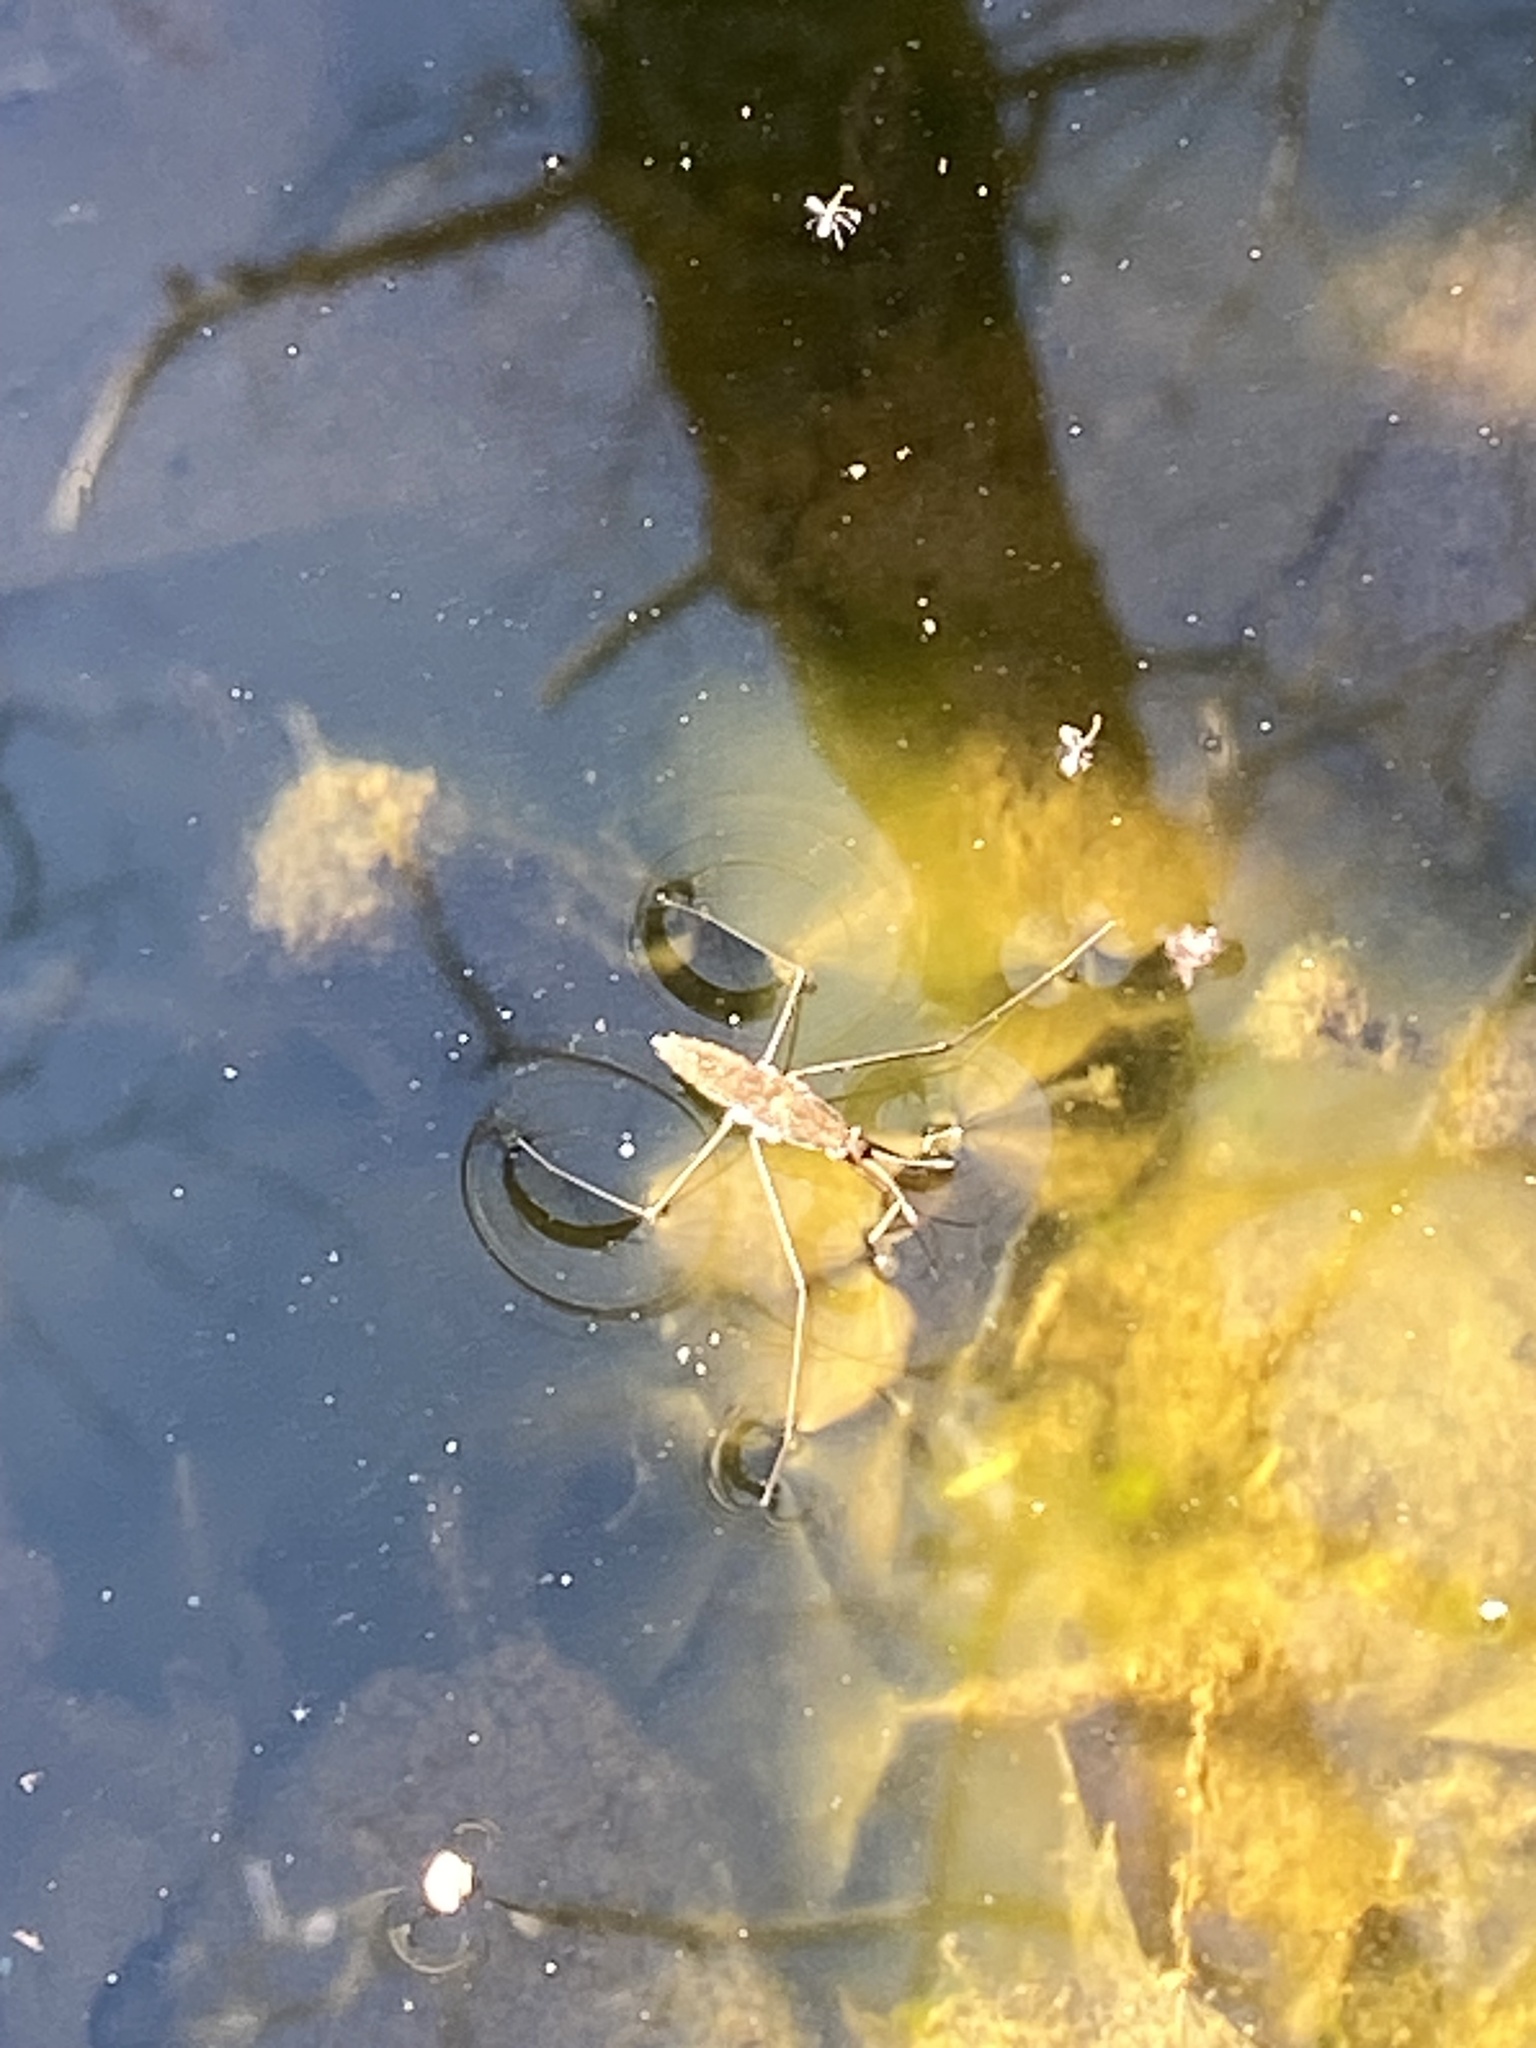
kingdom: Animalia
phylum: Arthropoda
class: Insecta
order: Hemiptera
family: Gerridae
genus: Aquarius
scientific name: Aquarius remigis
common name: Common water strider
